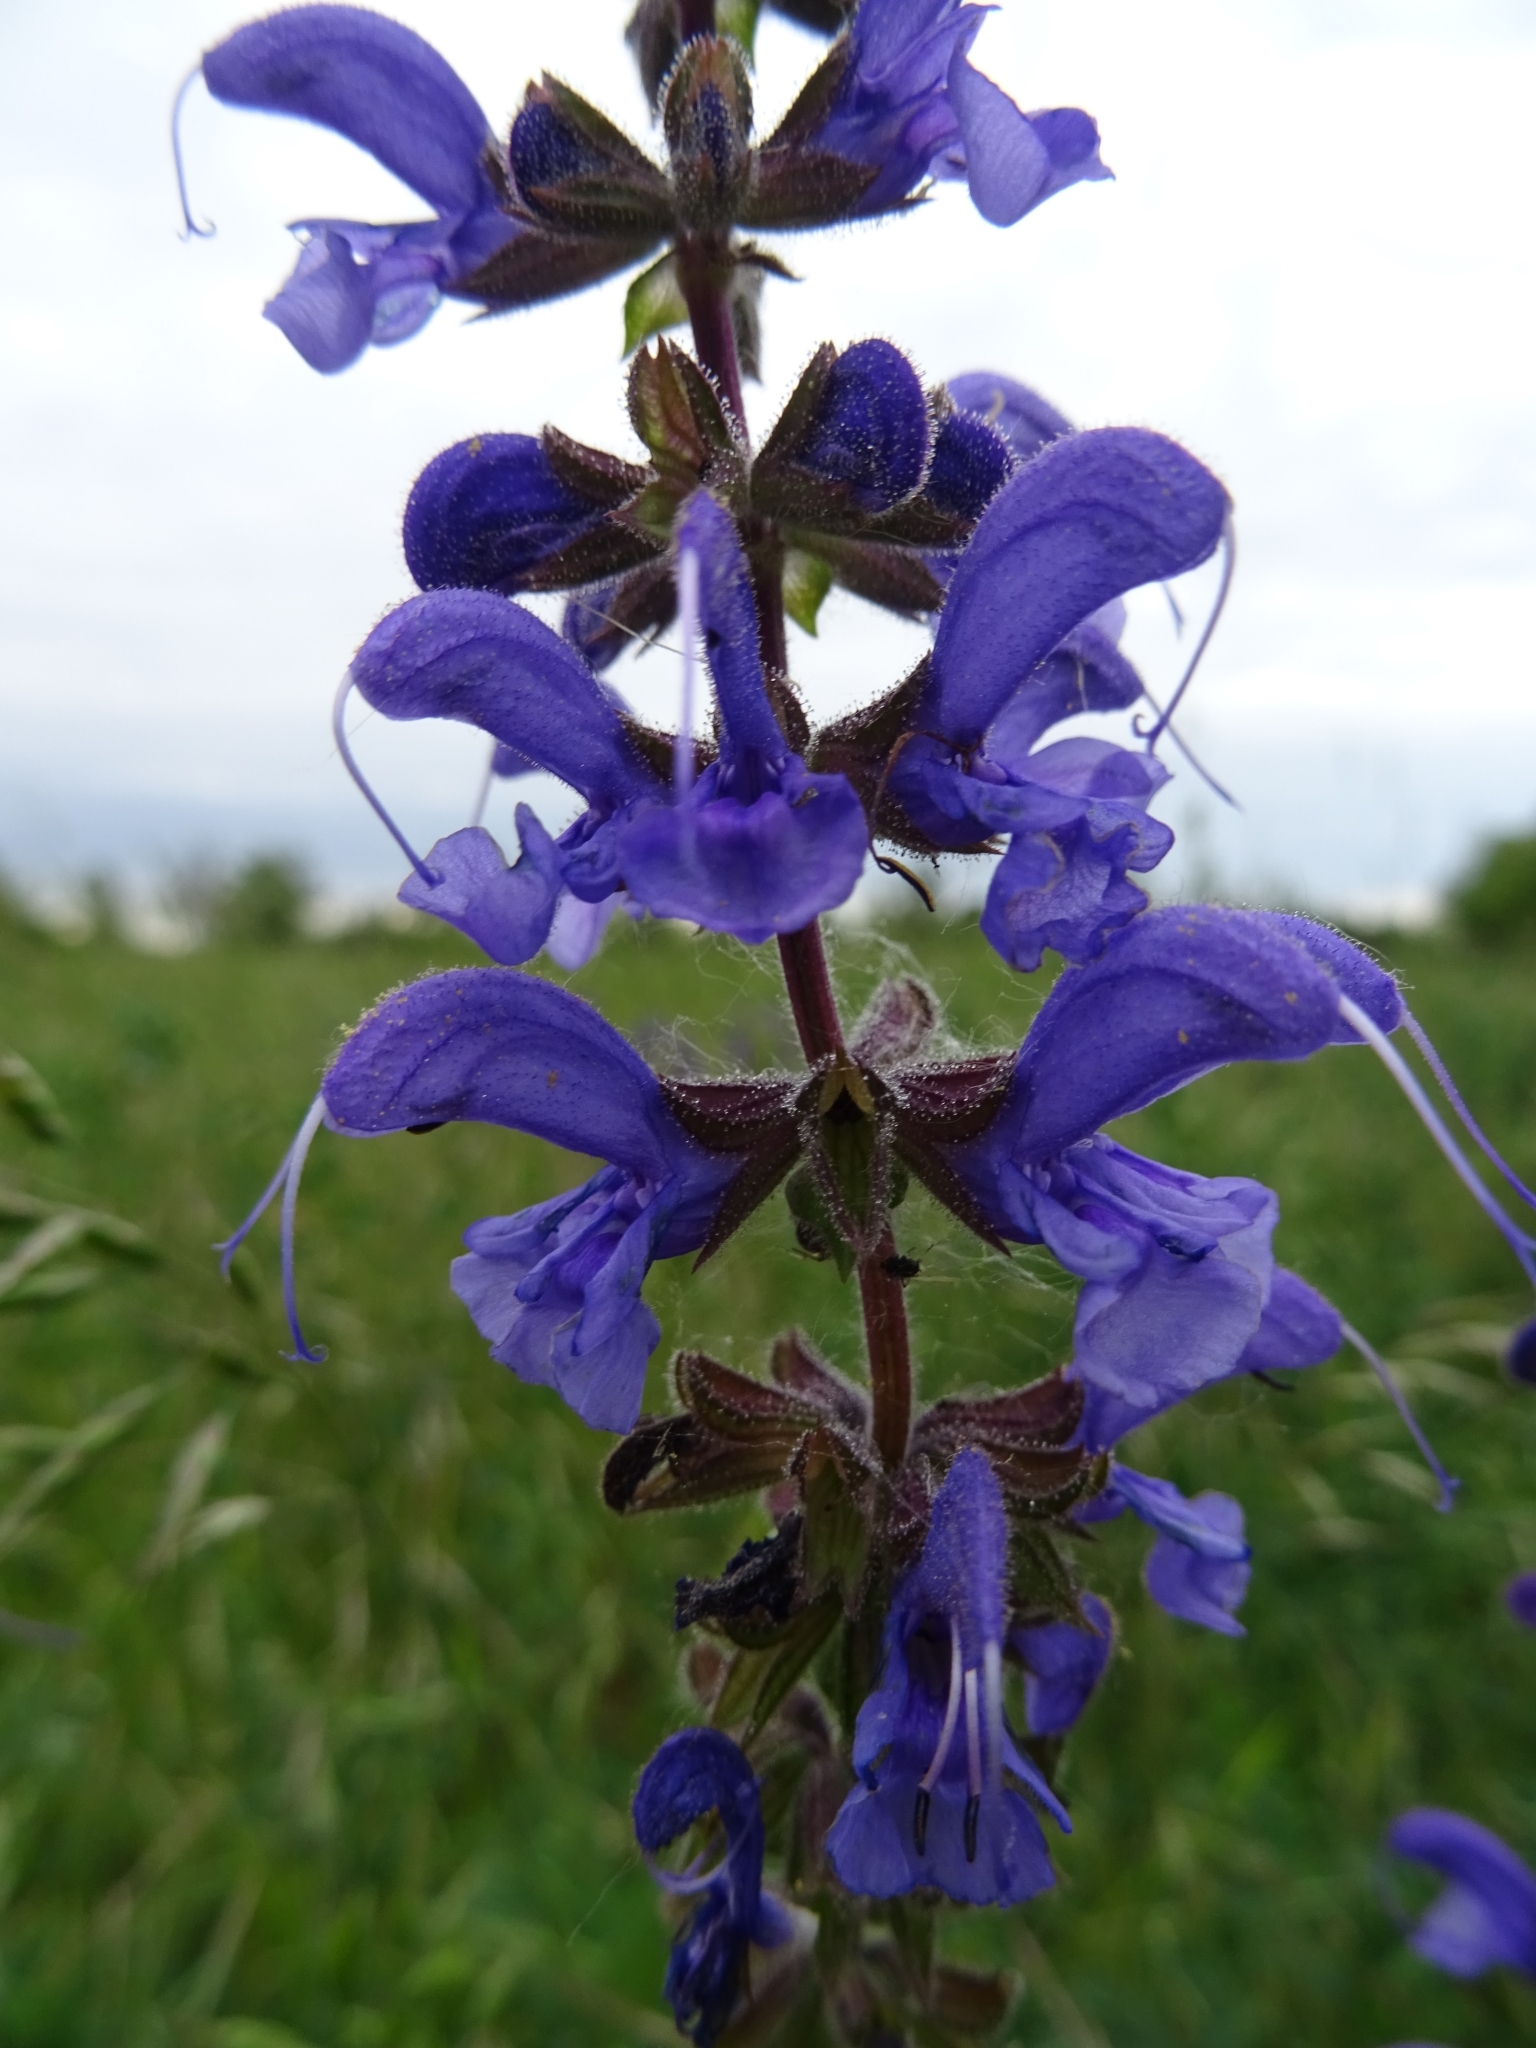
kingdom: Plantae
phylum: Tracheophyta
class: Magnoliopsida
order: Lamiales
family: Lamiaceae
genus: Salvia
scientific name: Salvia pratensis
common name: Meadow sage
